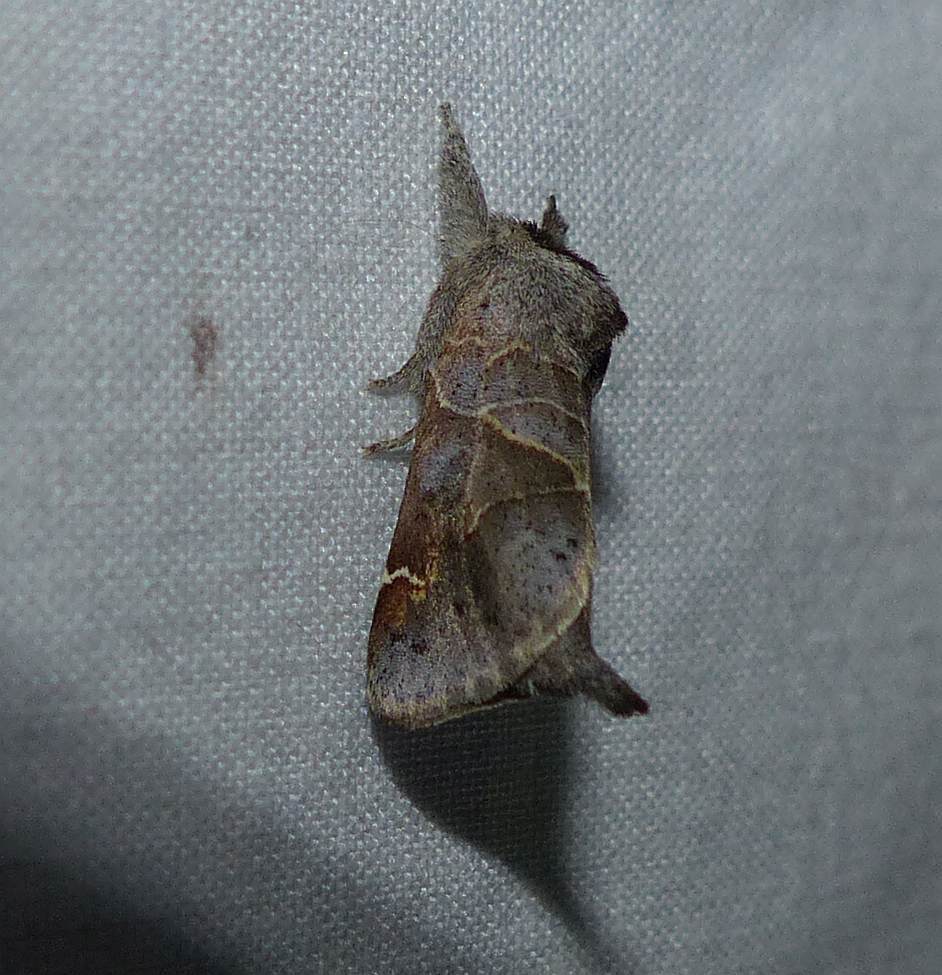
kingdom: Animalia
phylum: Arthropoda
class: Insecta
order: Lepidoptera
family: Notodontidae
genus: Clostera
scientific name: Clostera apicalis
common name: Apical prominent
